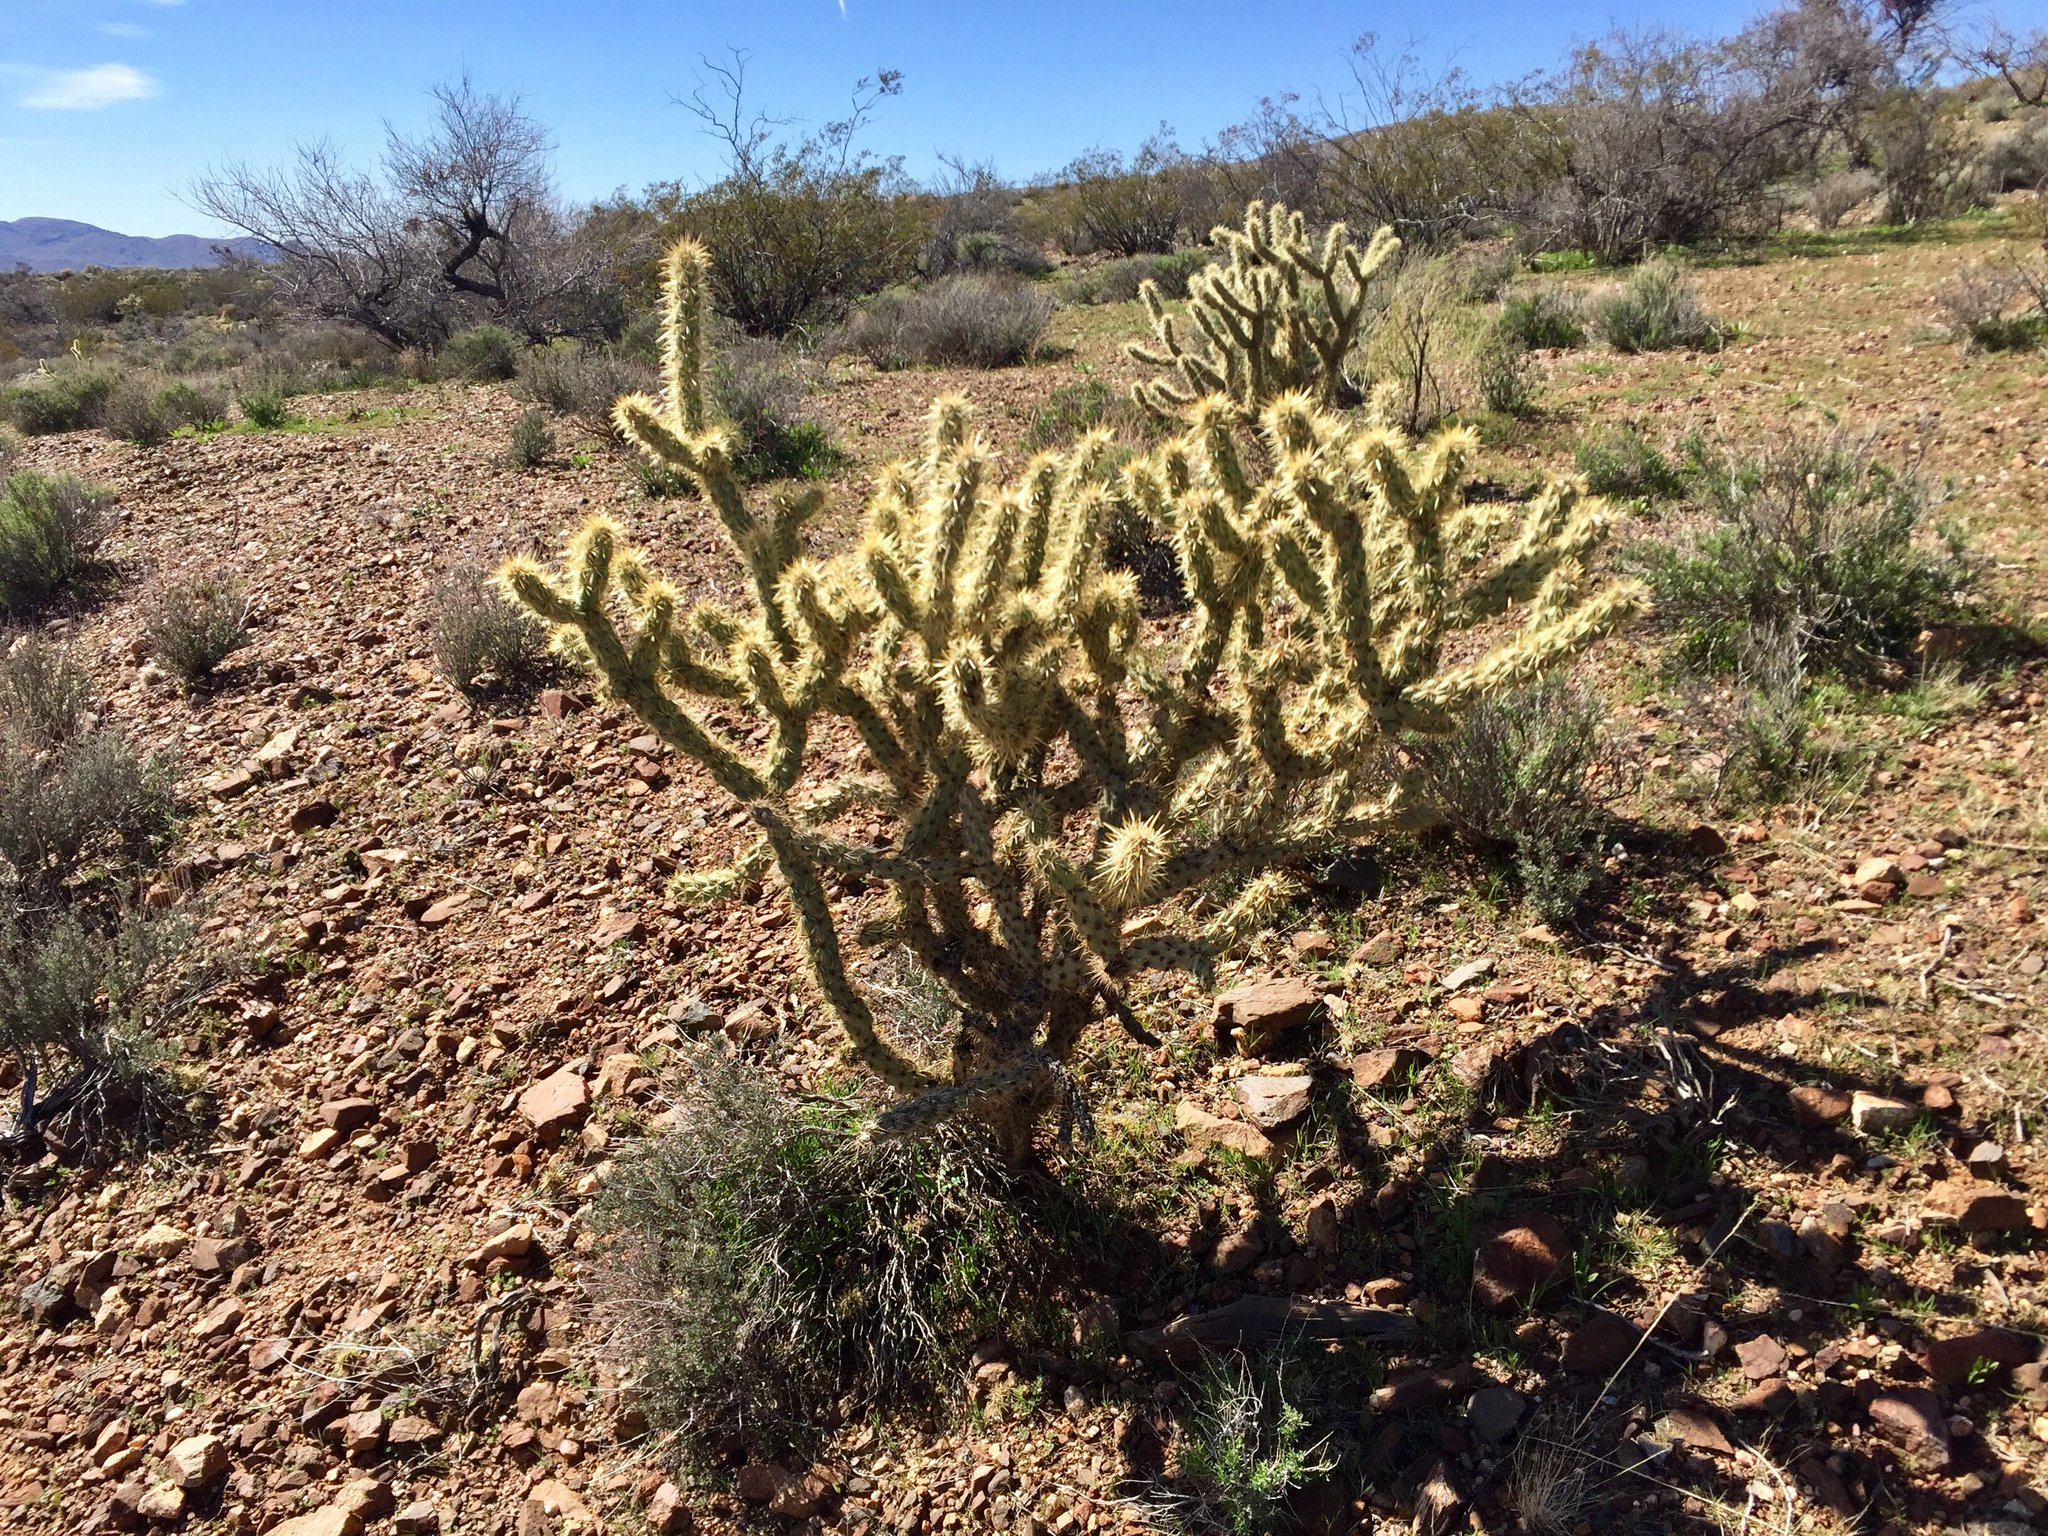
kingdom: Plantae
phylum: Tracheophyta
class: Magnoliopsida
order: Caryophyllales
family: Cactaceae
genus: Cylindropuntia
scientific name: Cylindropuntia acanthocarpa
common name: Buckhorn cholla
